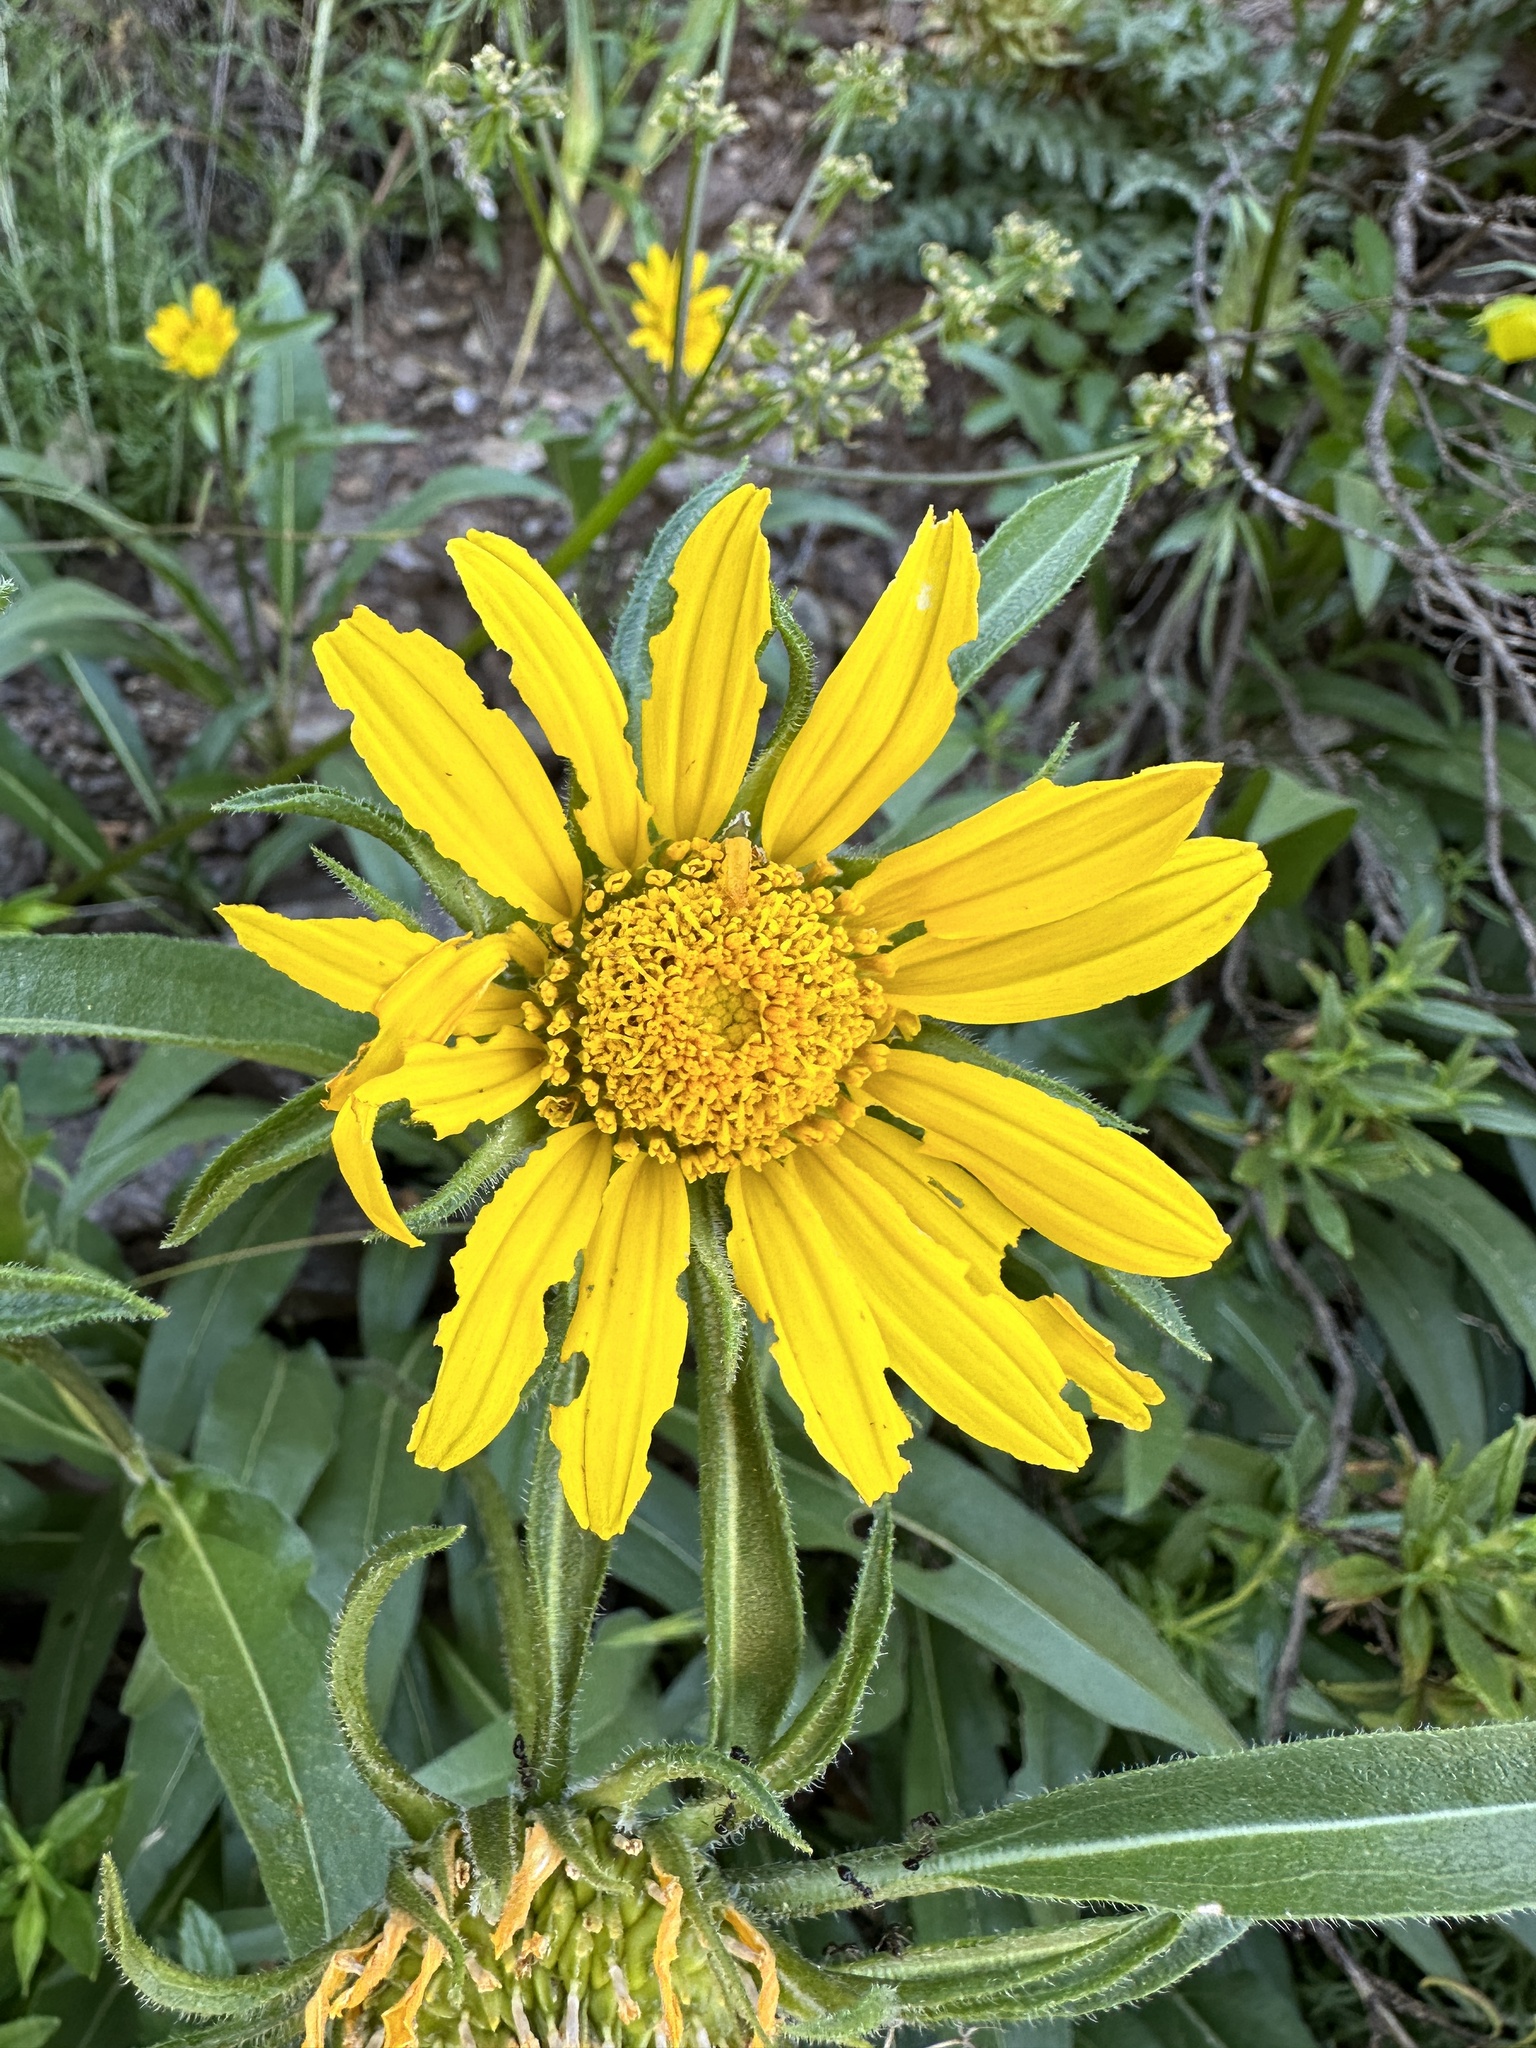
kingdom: Plantae
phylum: Tracheophyta
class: Magnoliopsida
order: Asterales
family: Asteraceae
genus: Helianthella
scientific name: Helianthella castanea
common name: Diablo helianthella
